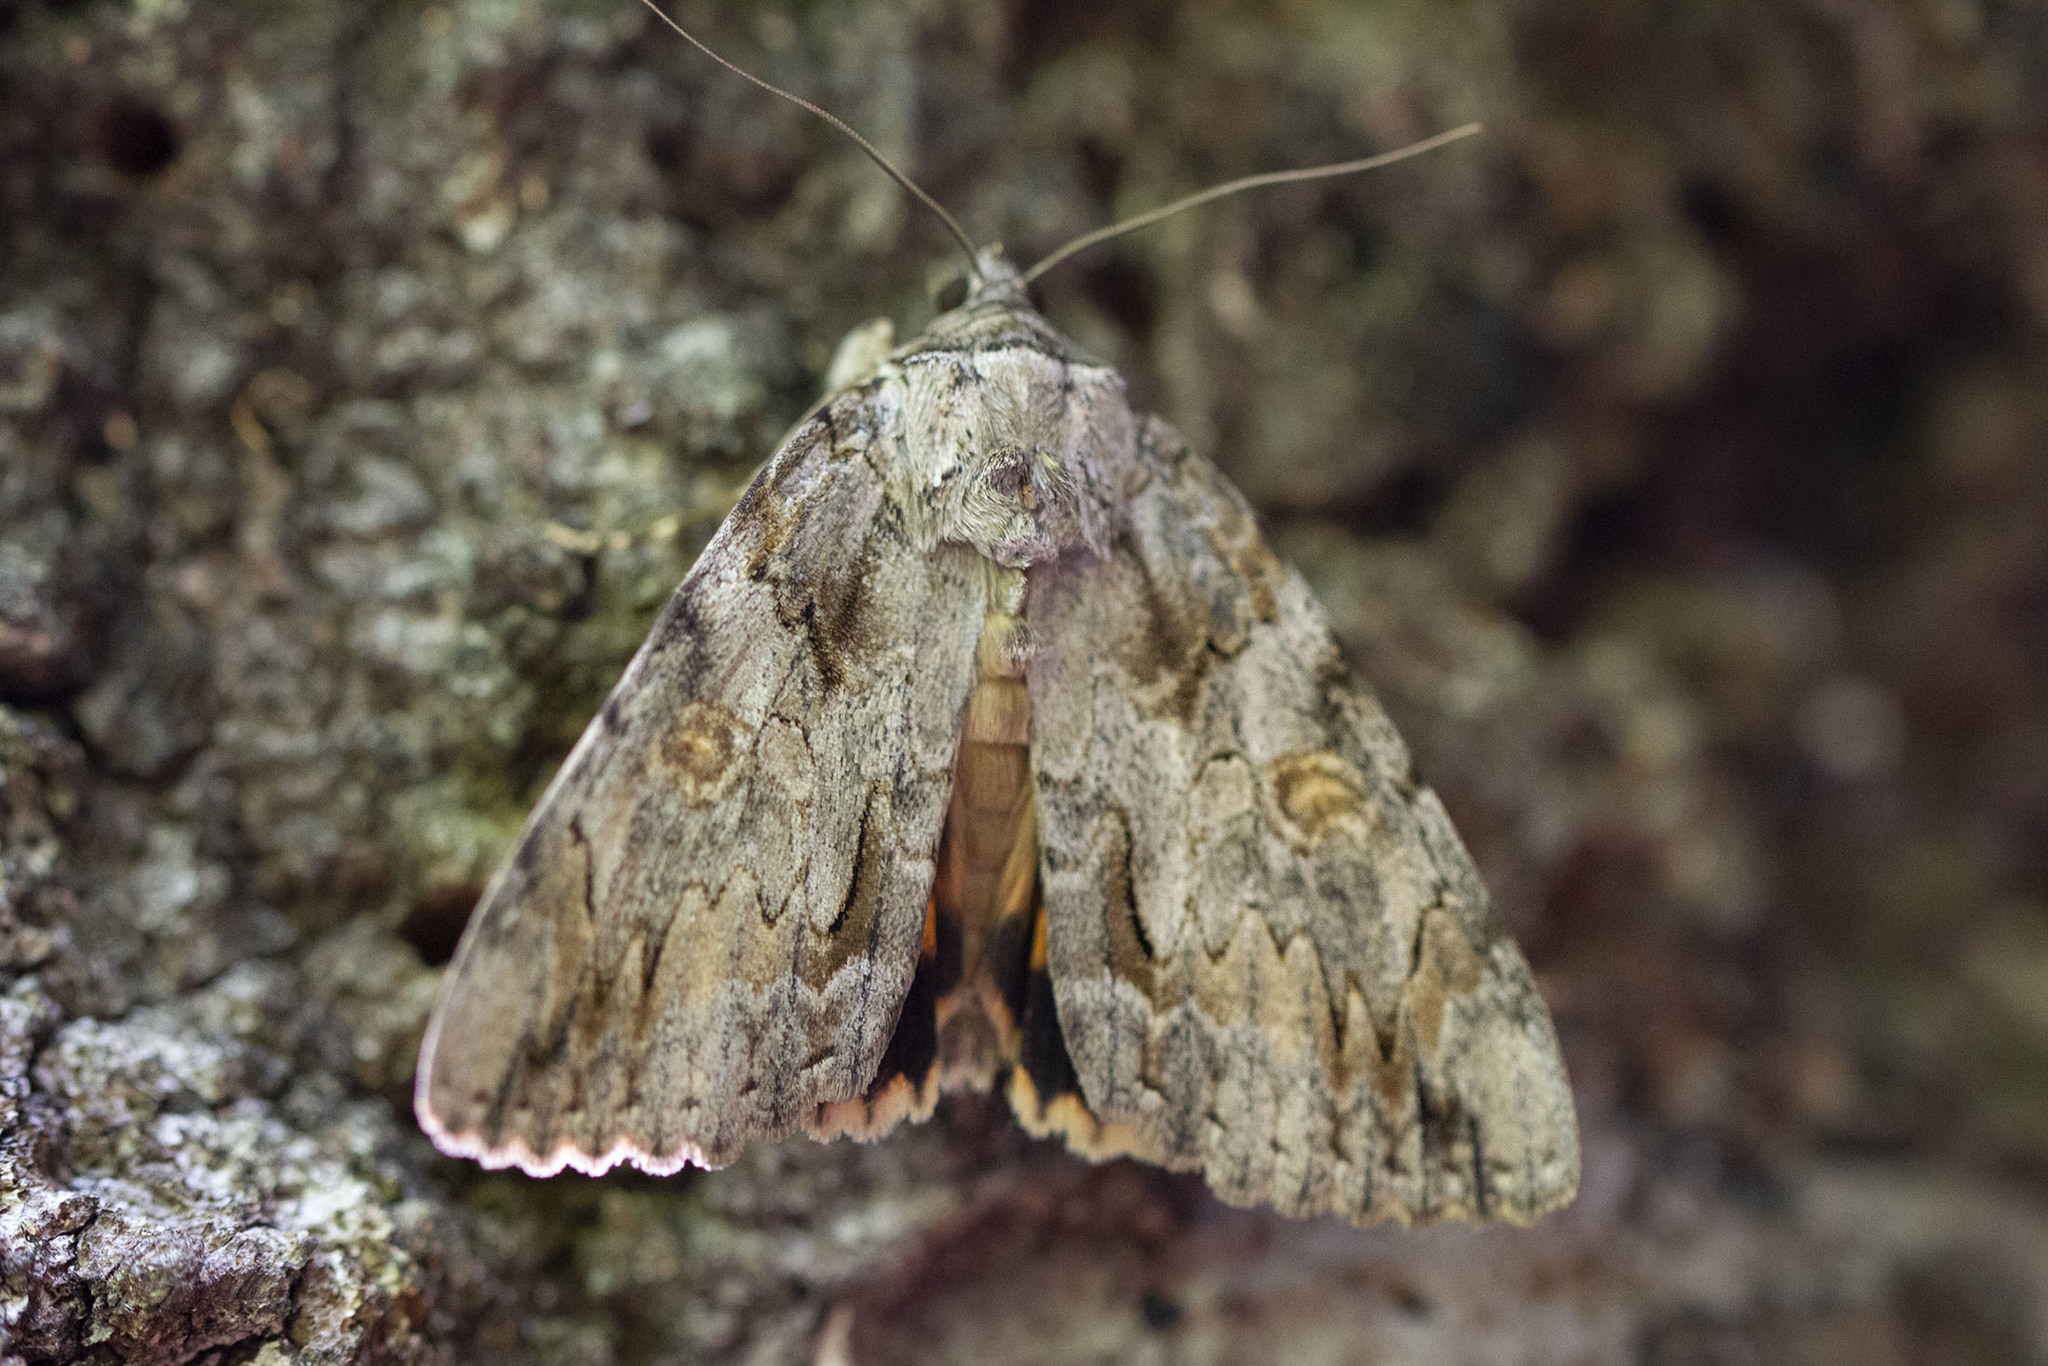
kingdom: Animalia
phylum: Arthropoda
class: Insecta
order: Lepidoptera
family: Erebidae
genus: Catocala
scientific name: Catocala neogama
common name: Bride underwing
